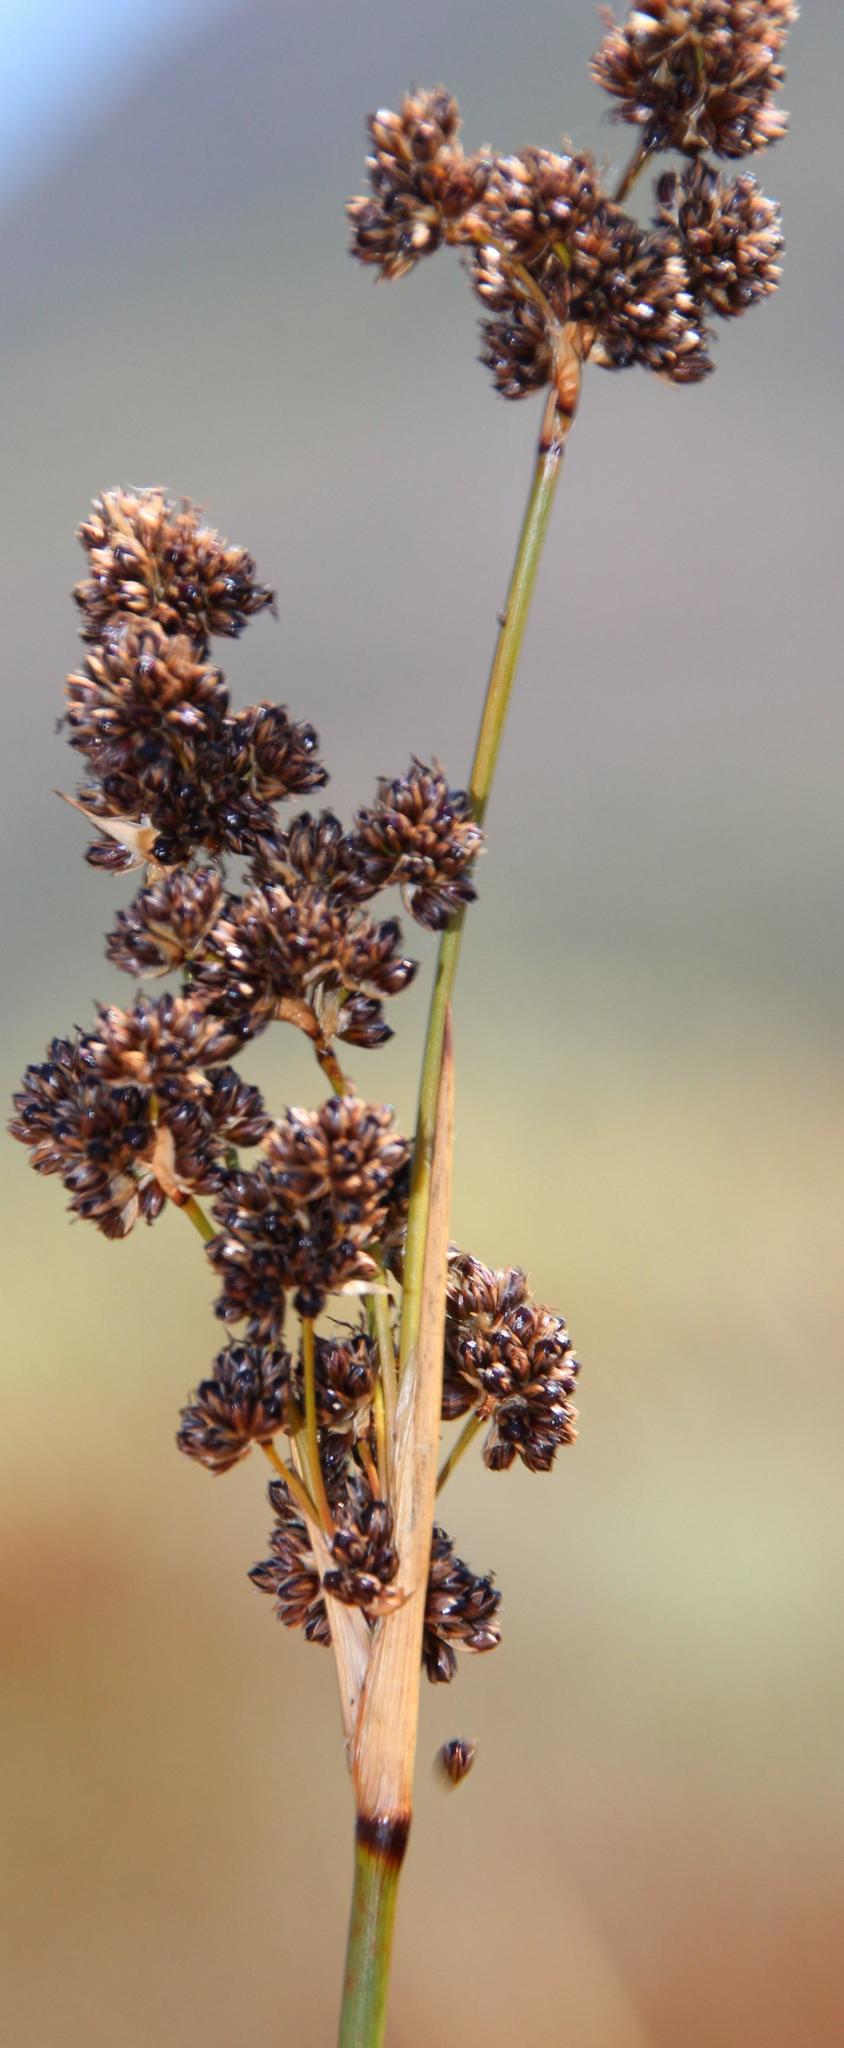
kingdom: Plantae
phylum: Tracheophyta
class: Liliopsida
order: Poales
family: Juncaceae
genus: Juncus
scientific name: Juncus acutus
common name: Sharp rush
